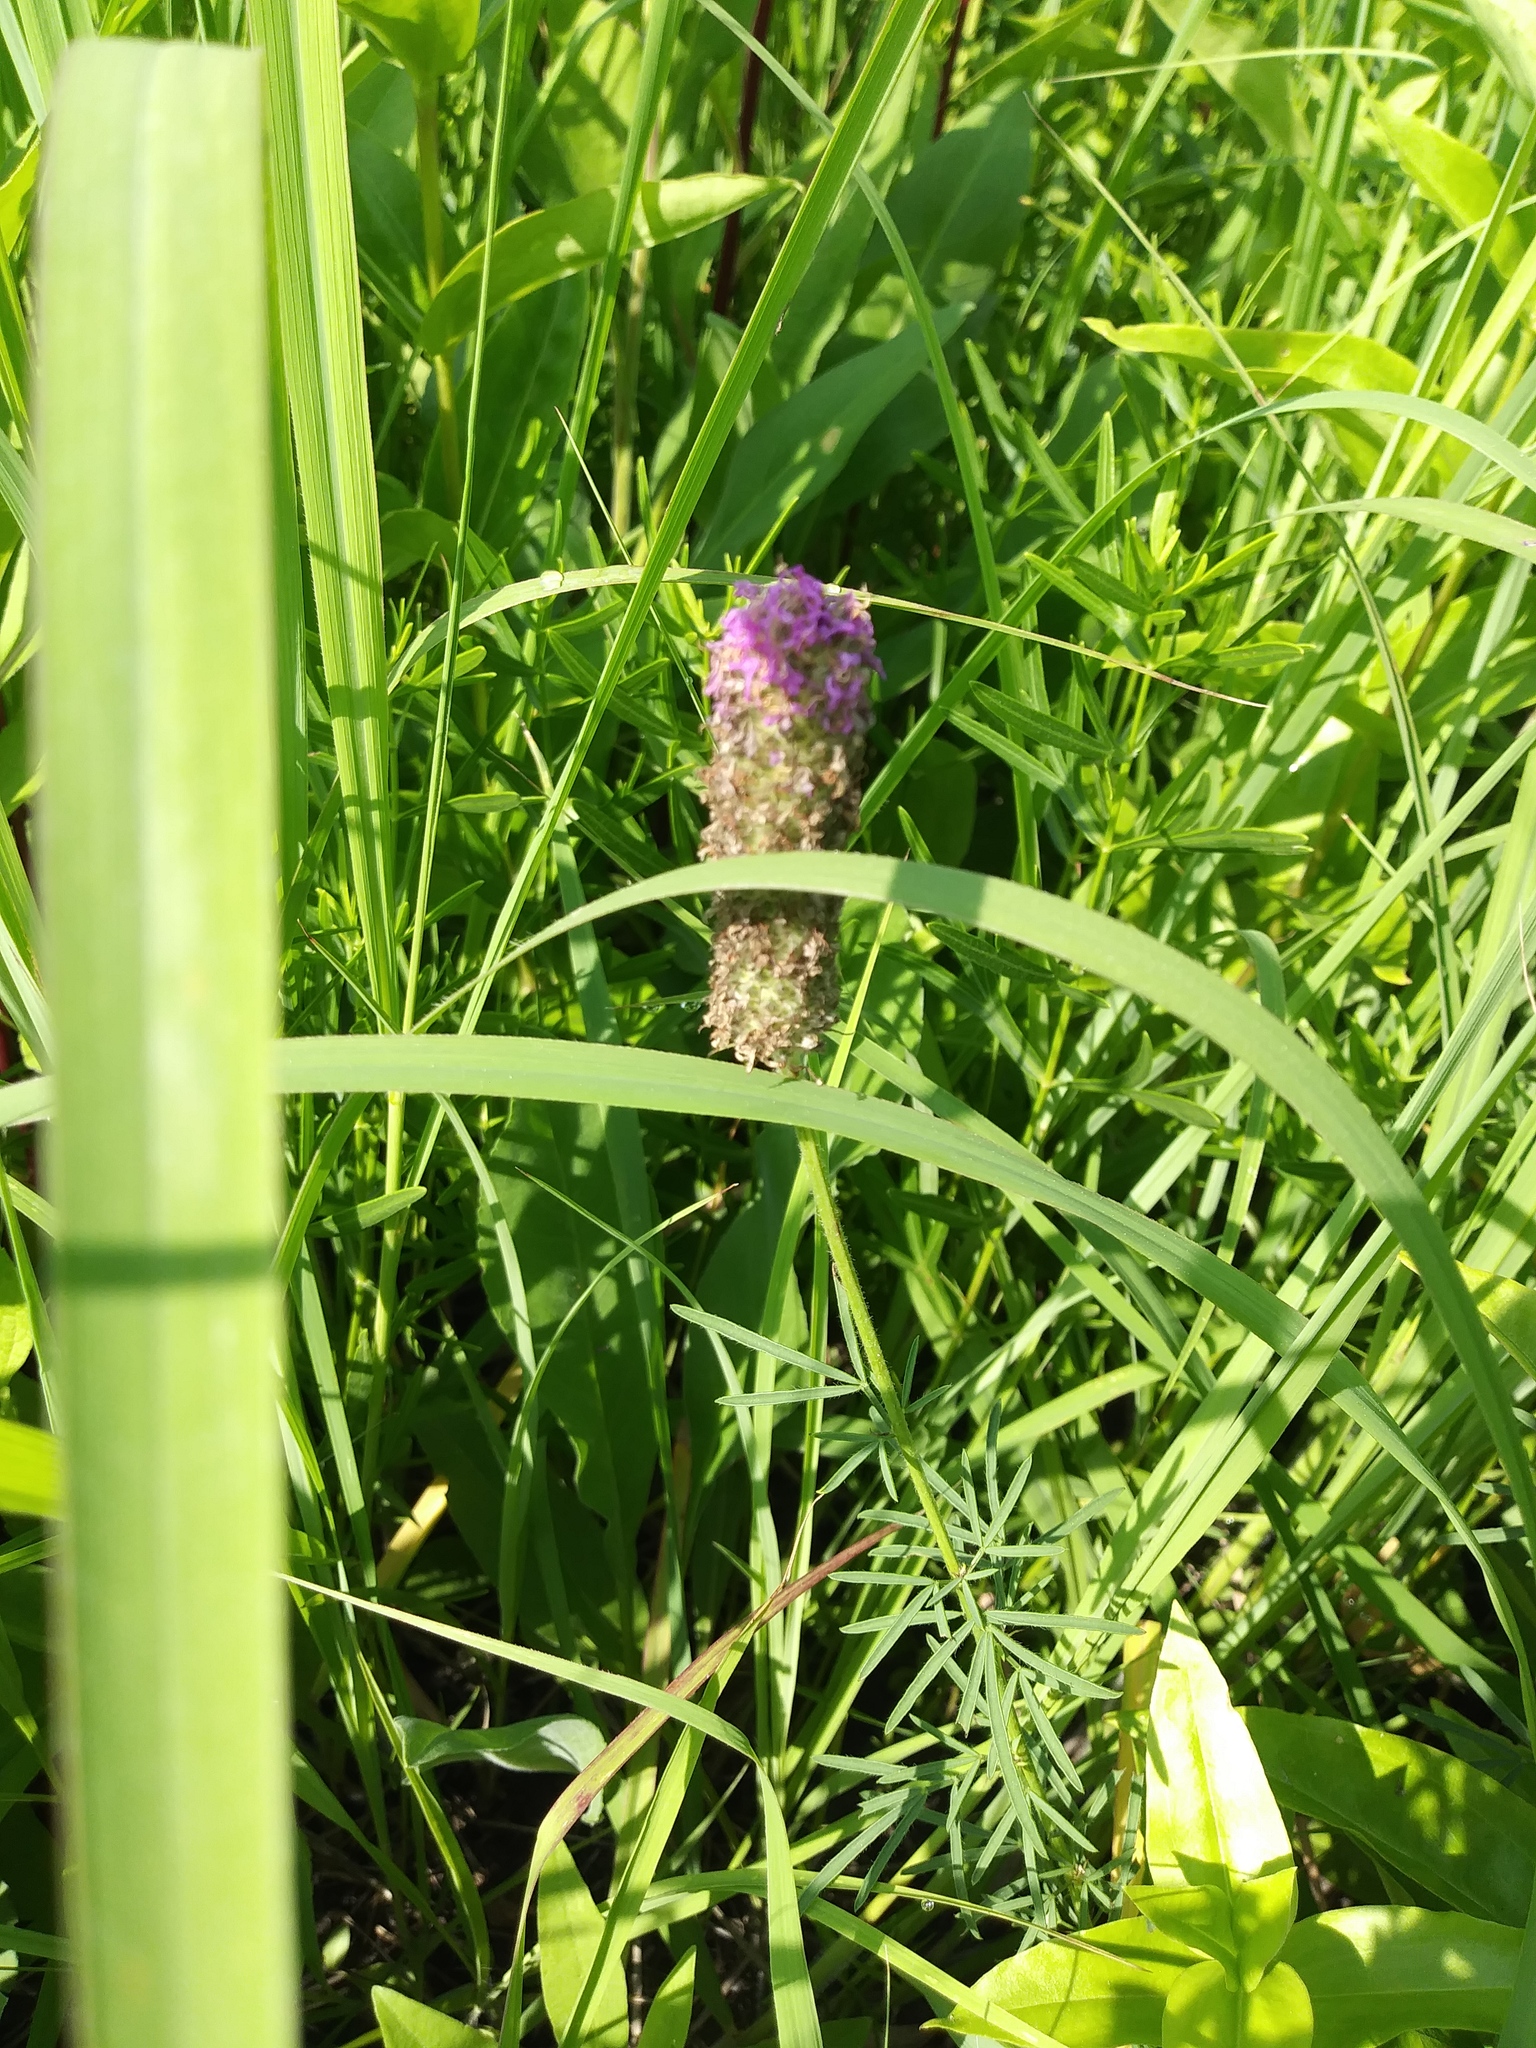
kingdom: Plantae
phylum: Tracheophyta
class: Magnoliopsida
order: Fabales
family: Fabaceae
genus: Dalea
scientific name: Dalea purpurea
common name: Purple prairie-clover
